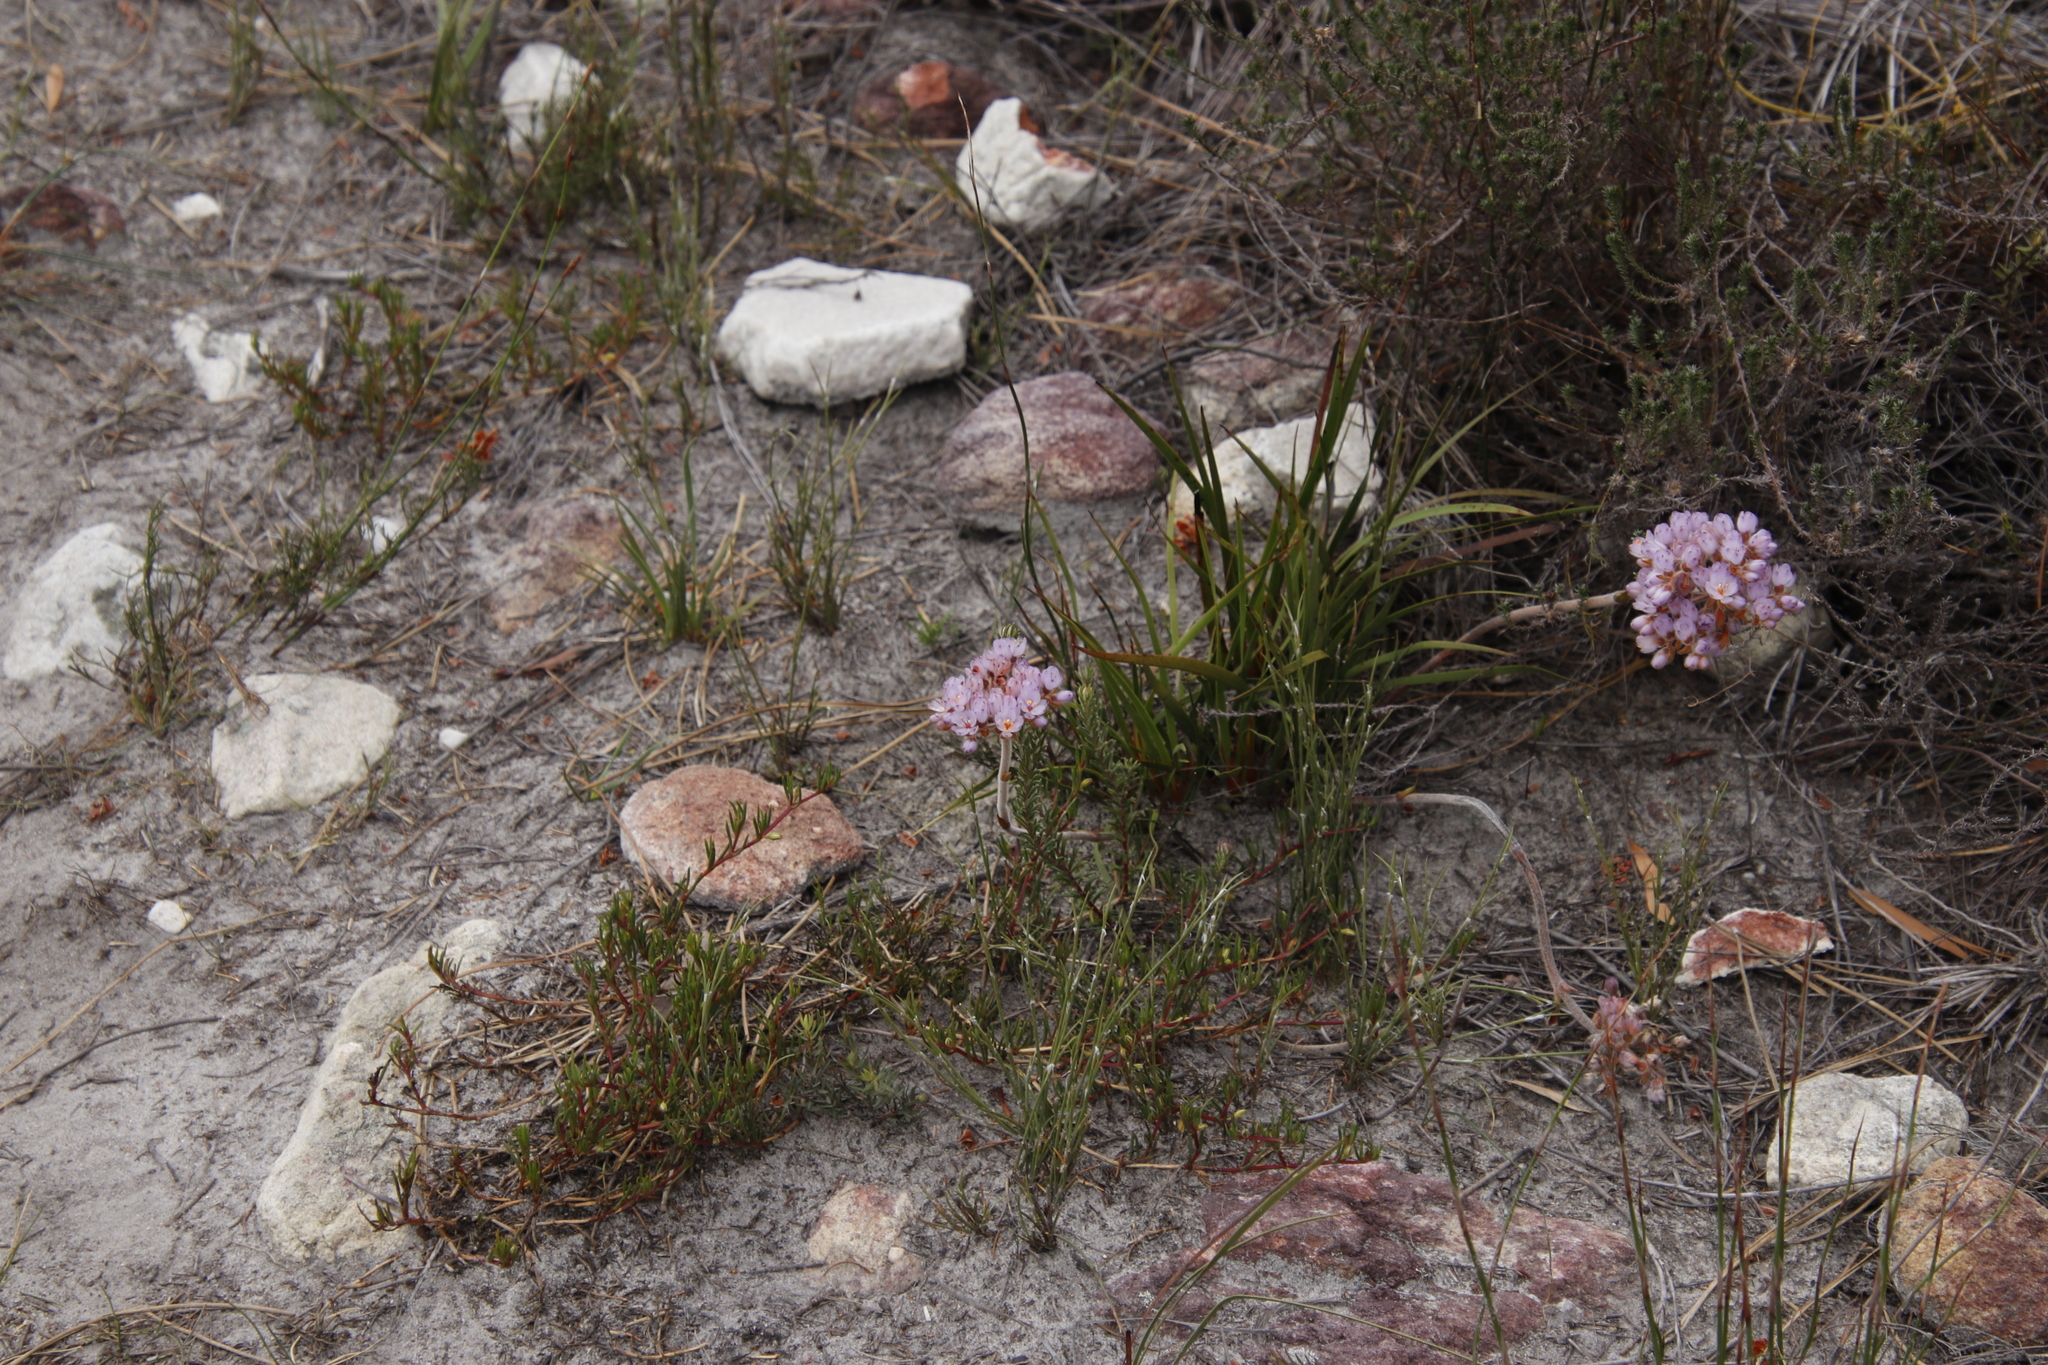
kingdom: Plantae
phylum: Tracheophyta
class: Liliopsida
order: Commelinales
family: Haemodoraceae
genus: Dilatris
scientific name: Dilatris pillansii
